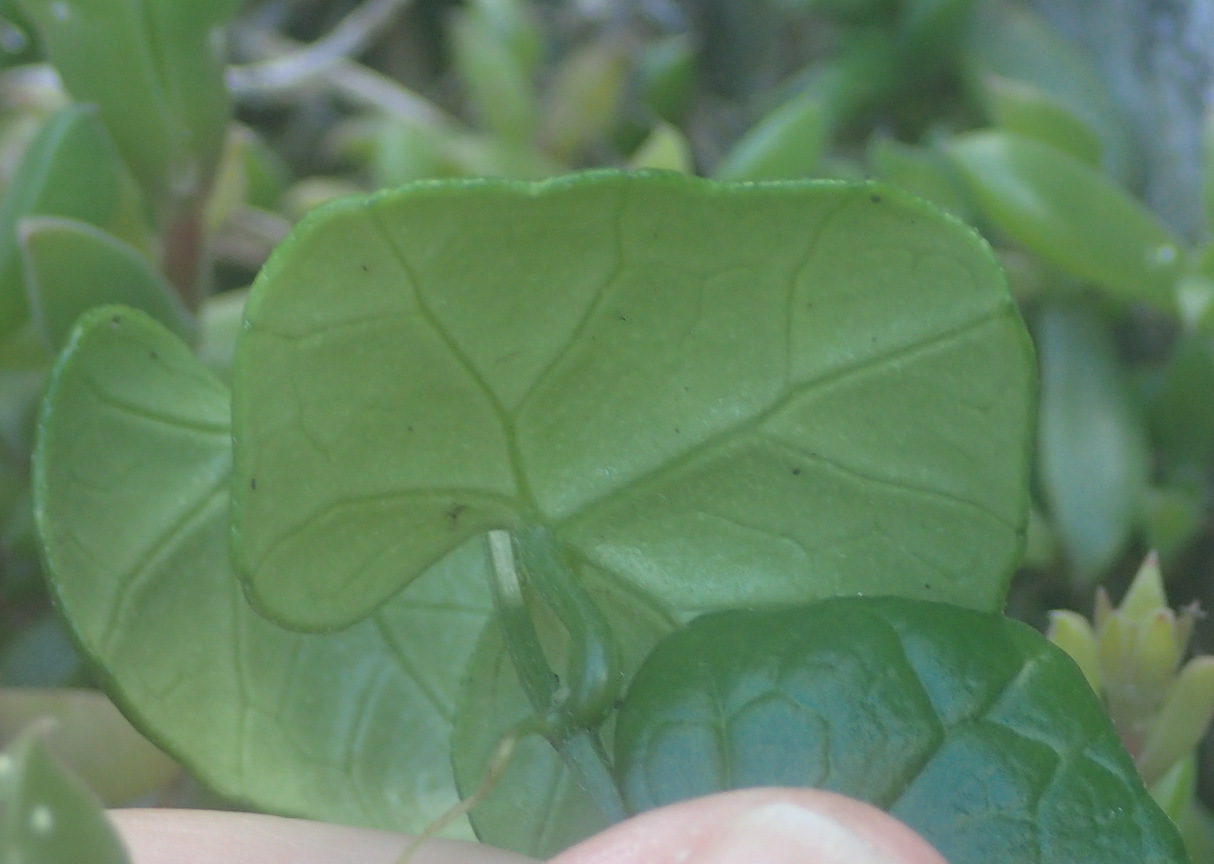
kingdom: Plantae
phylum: Tracheophyta
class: Magnoliopsida
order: Cucurbitales
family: Cucurbitaceae
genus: Kedrostis
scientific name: Kedrostis nana
